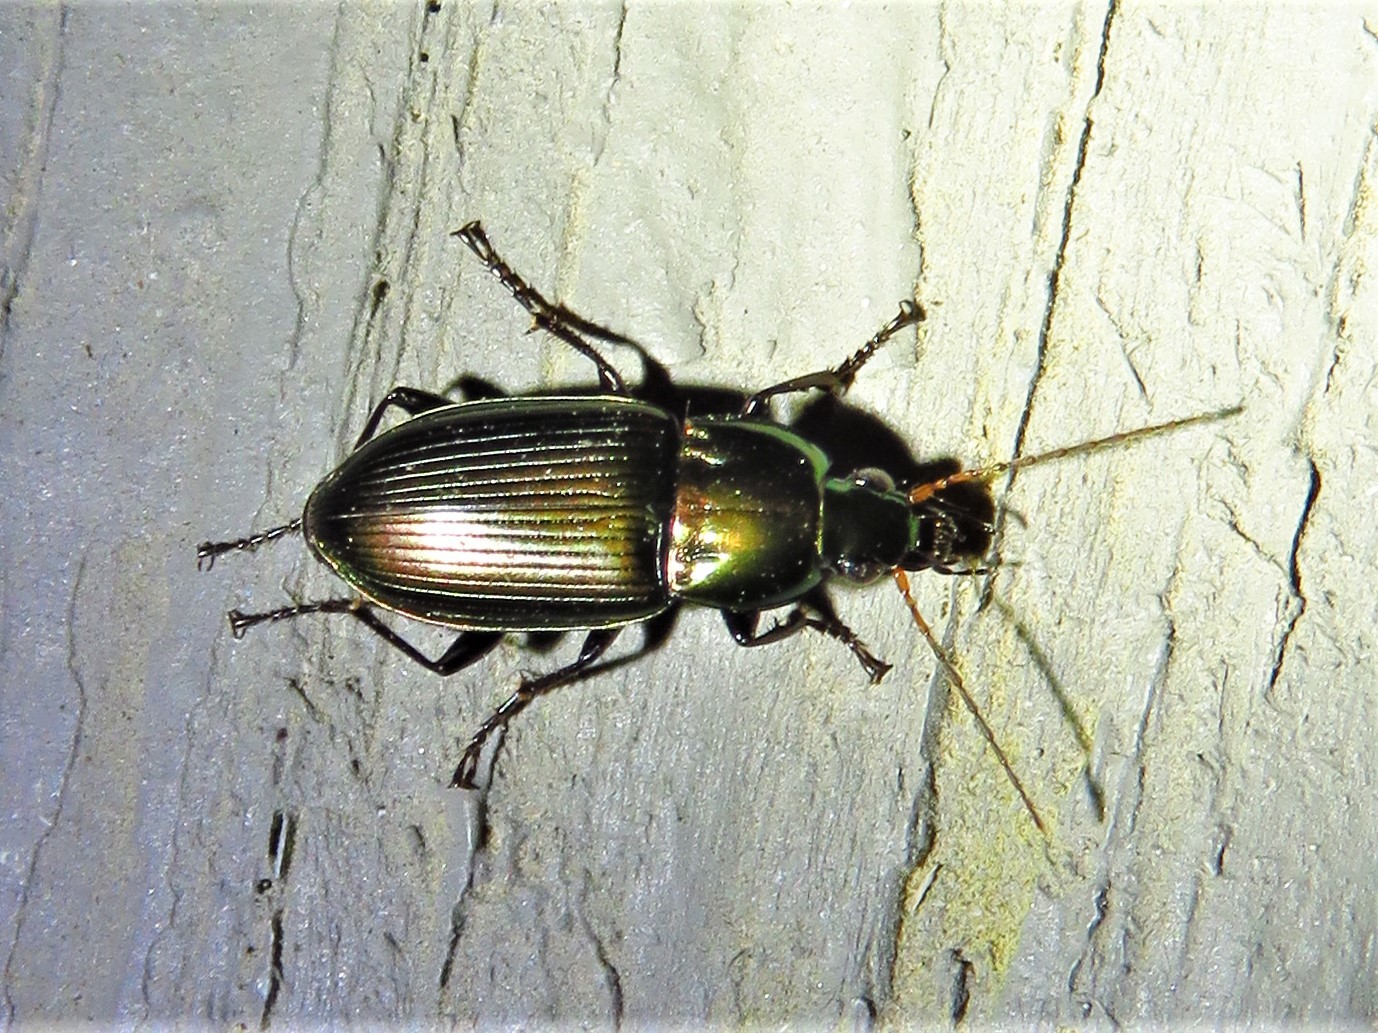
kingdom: Animalia
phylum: Arthropoda
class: Insecta
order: Coleoptera
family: Carabidae
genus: Poecilus
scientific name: Poecilus chalcites
